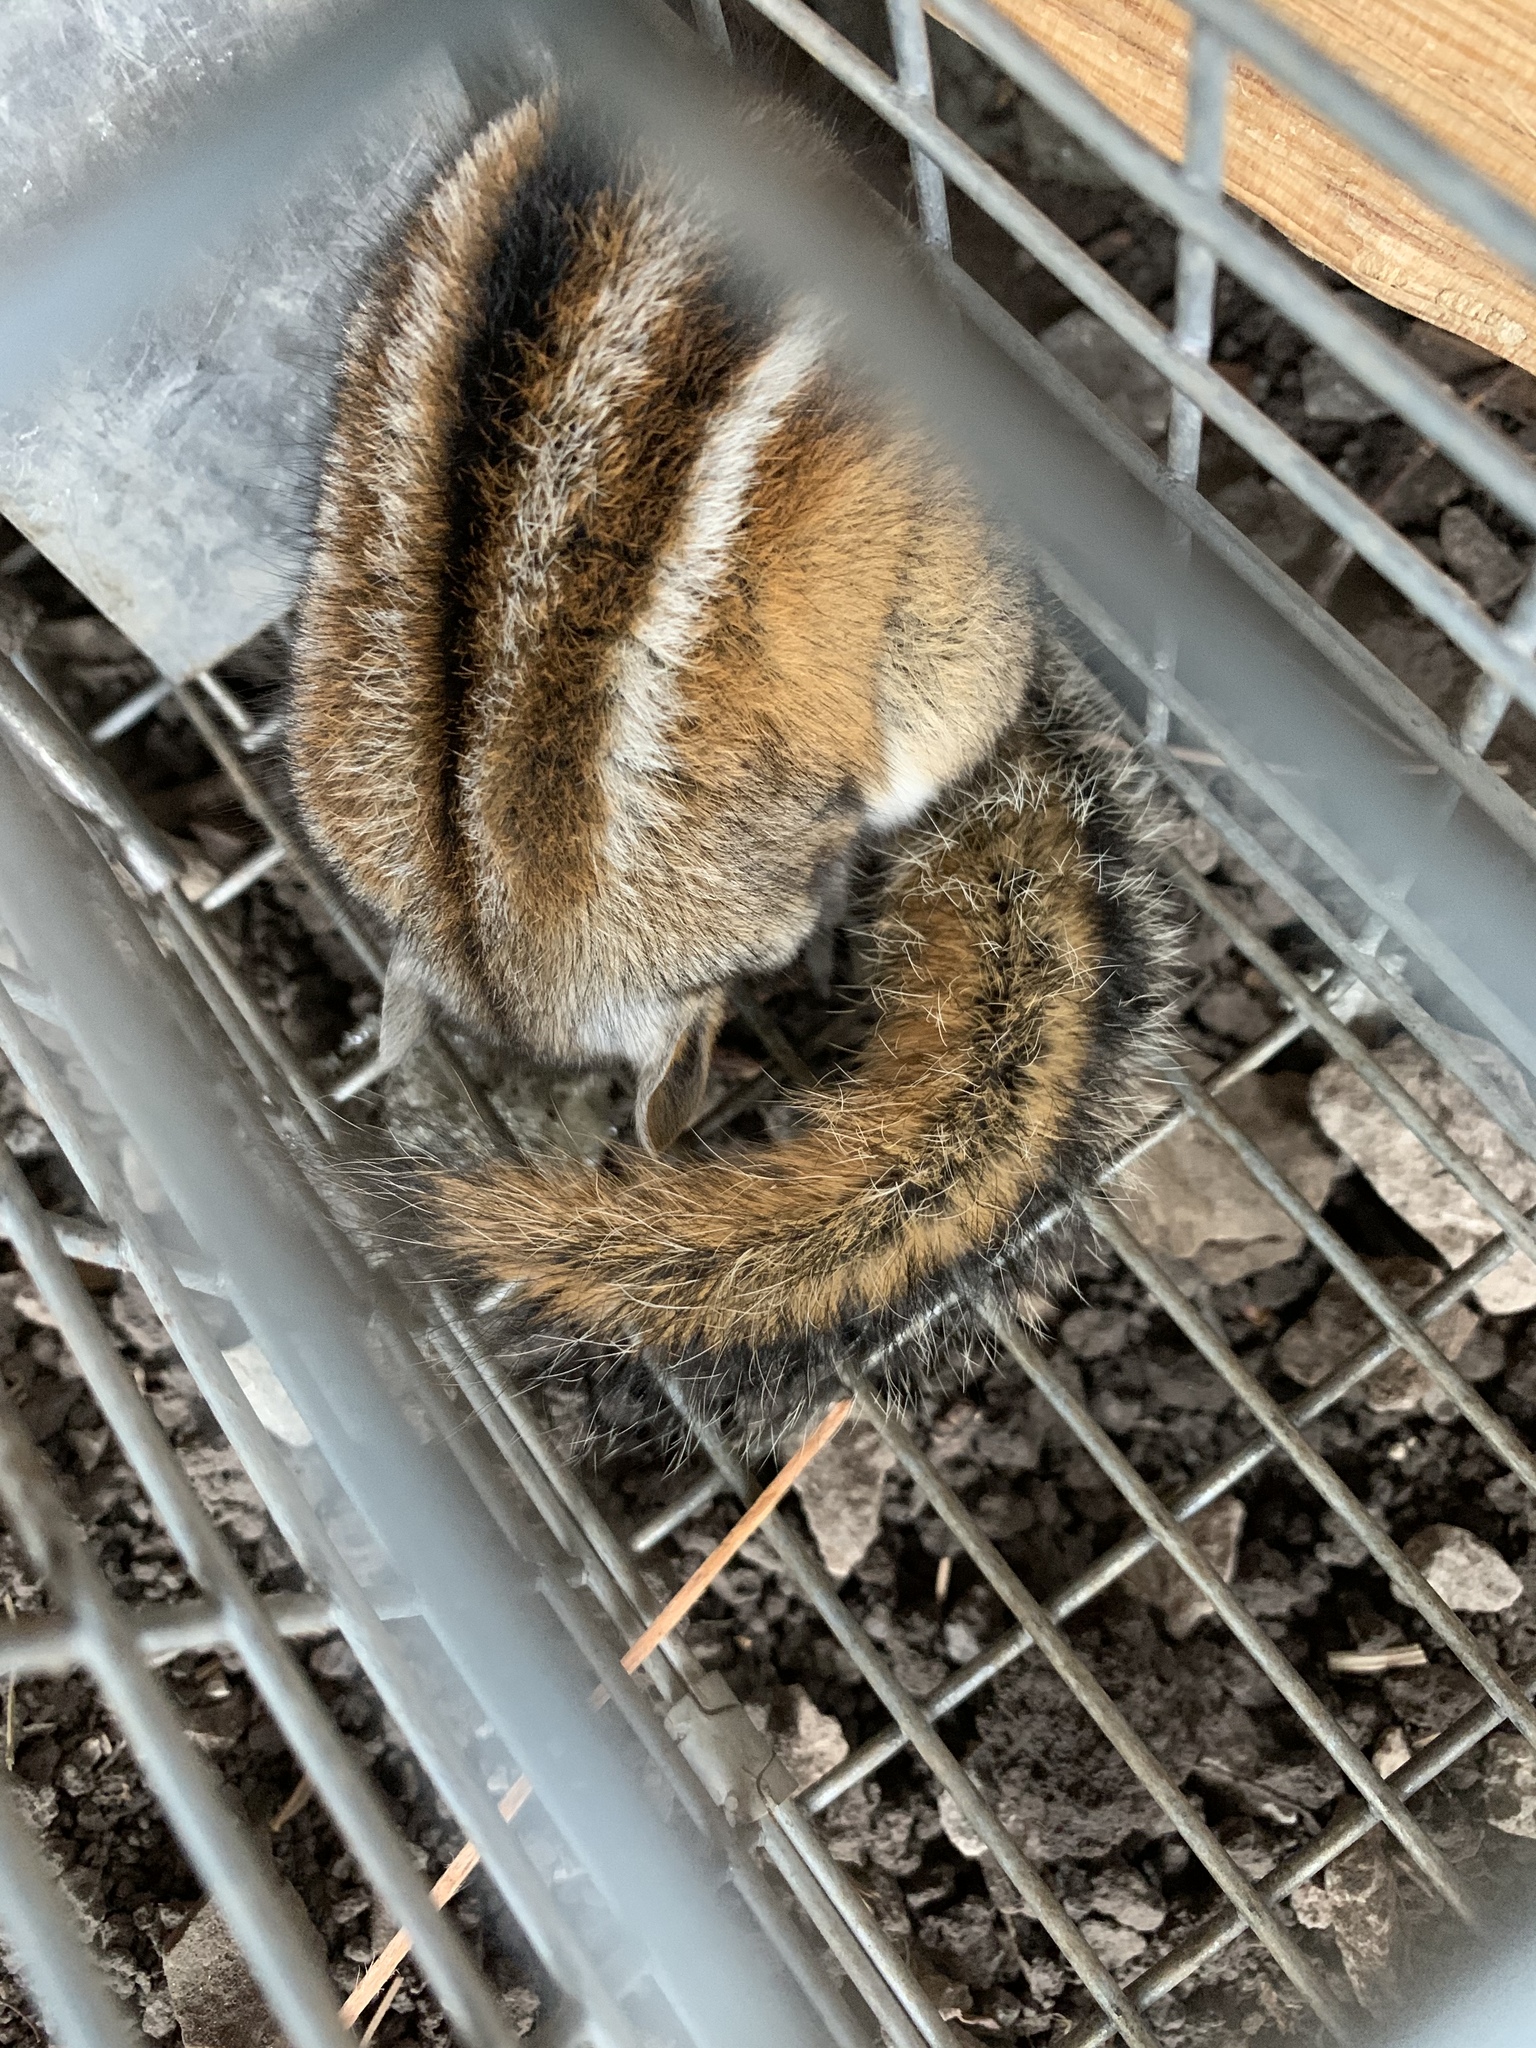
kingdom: Animalia
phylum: Chordata
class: Mammalia
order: Rodentia
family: Sciuridae
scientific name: Sciuridae
